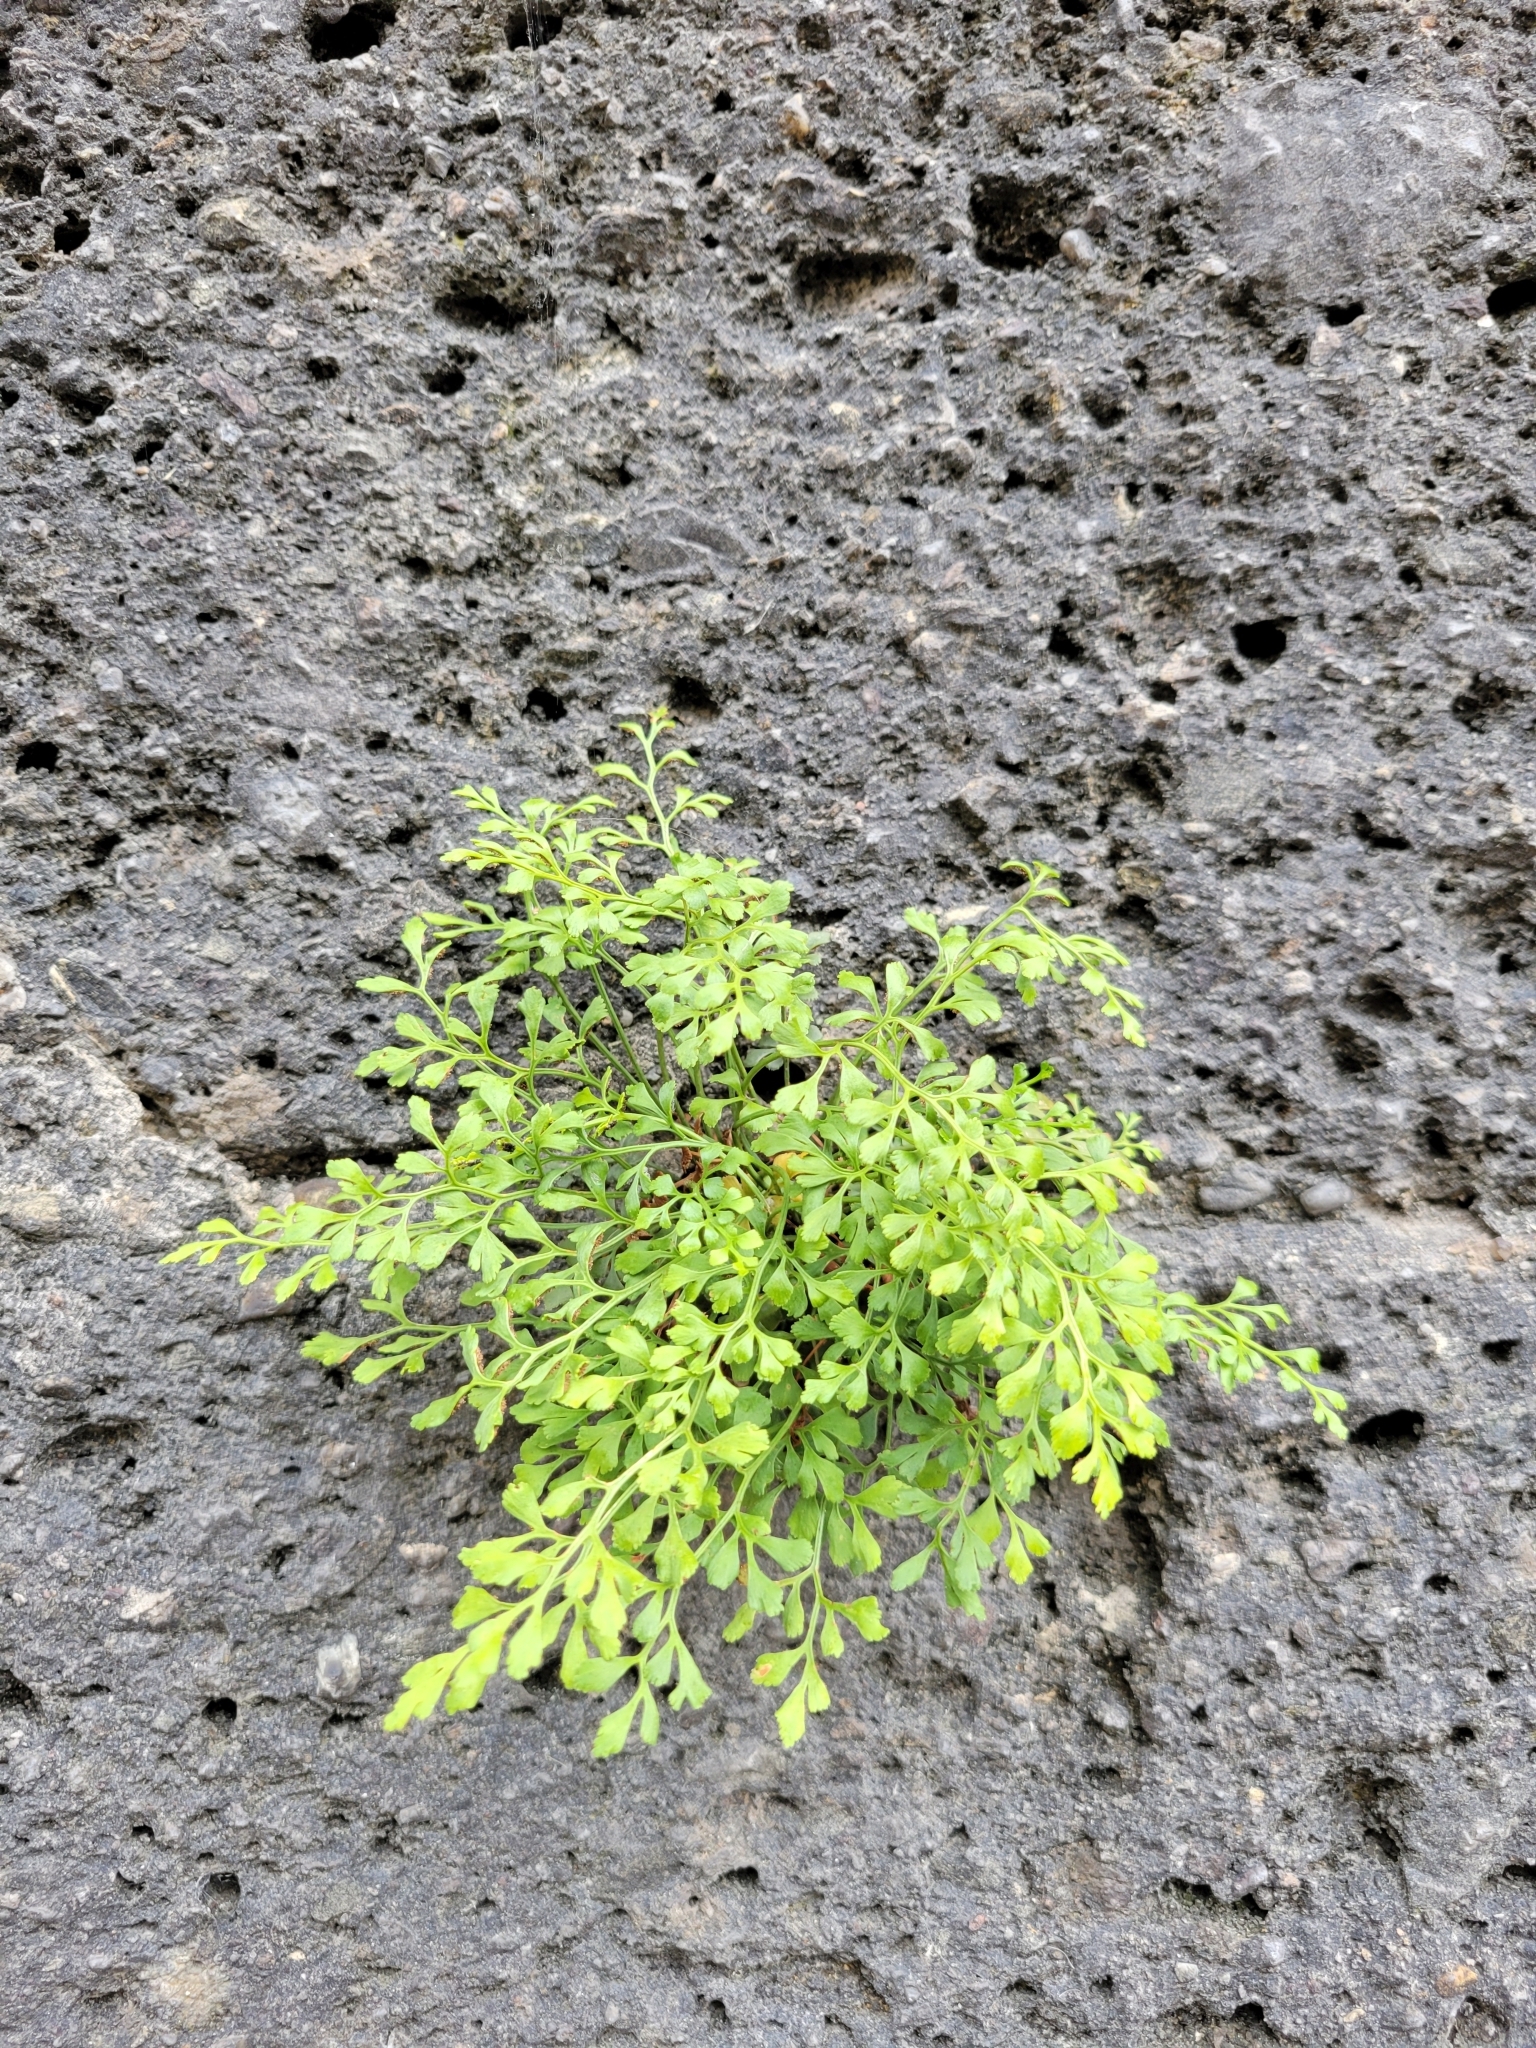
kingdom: Plantae
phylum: Tracheophyta
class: Polypodiopsida
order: Polypodiales
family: Aspleniaceae
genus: Asplenium
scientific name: Asplenium ruta-muraria
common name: Wall-rue
